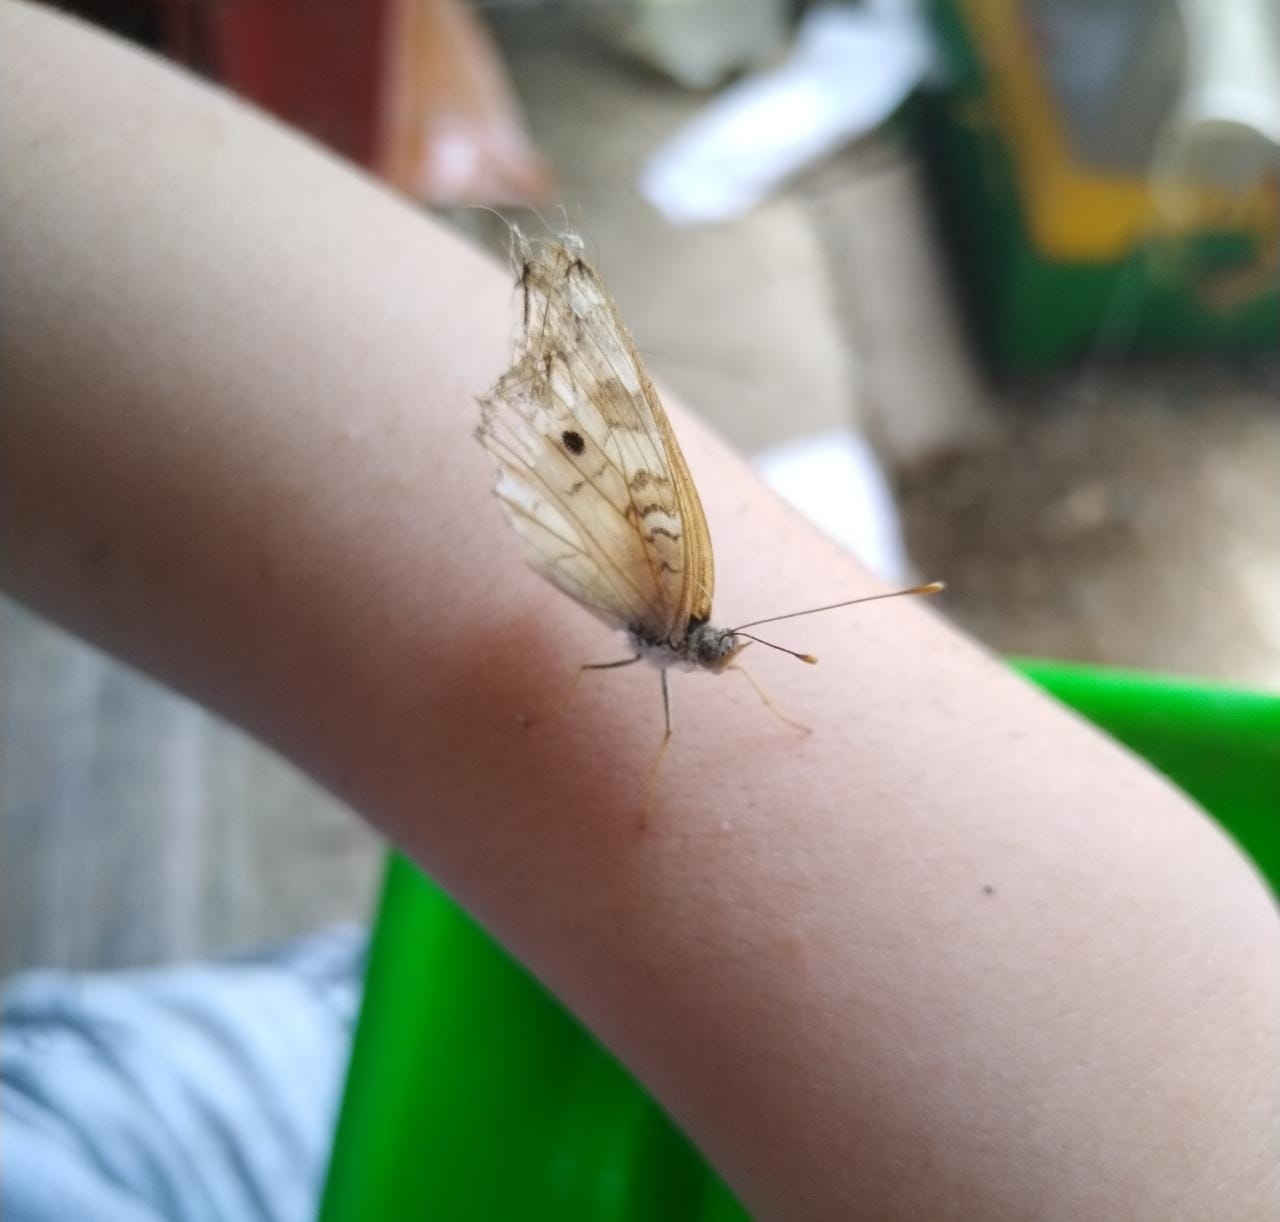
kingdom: Animalia
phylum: Arthropoda
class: Insecta
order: Lepidoptera
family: Nymphalidae
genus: Anartia
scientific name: Anartia jatrophae
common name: White peacock
